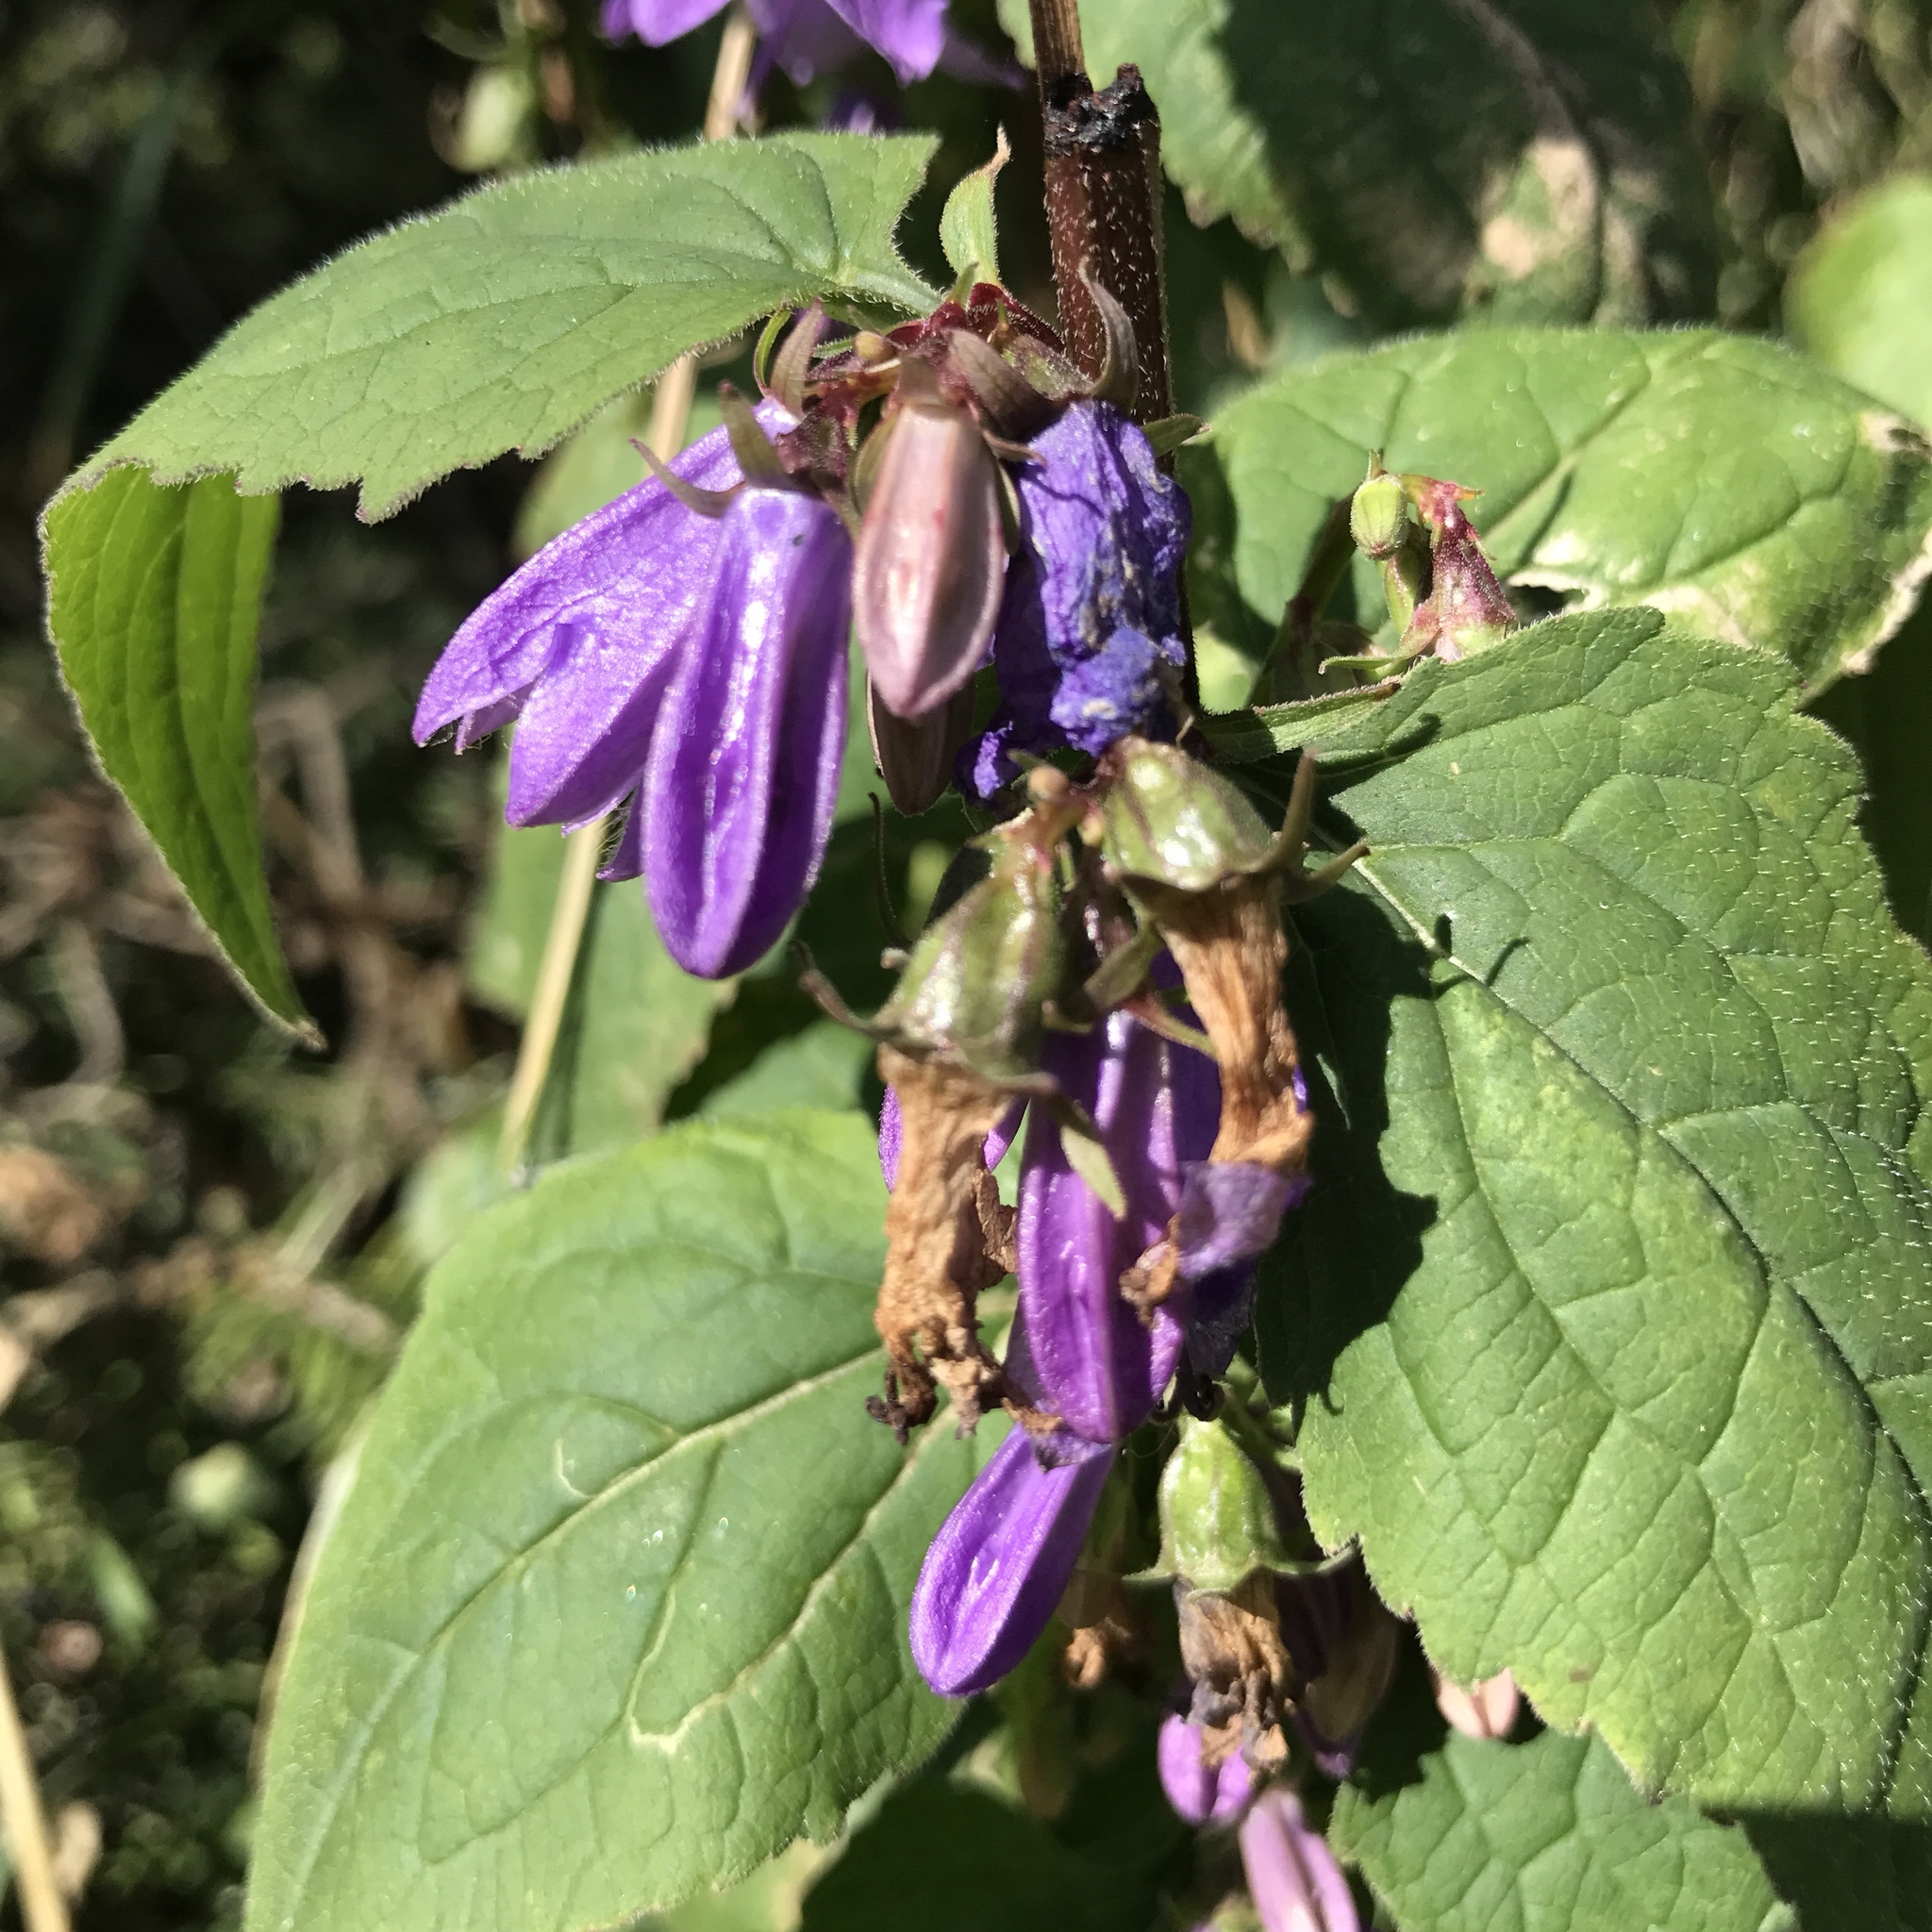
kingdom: Plantae
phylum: Tracheophyta
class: Magnoliopsida
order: Asterales
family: Campanulaceae
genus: Campanula
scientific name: Campanula rapunculoides
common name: Creeping bellflower
